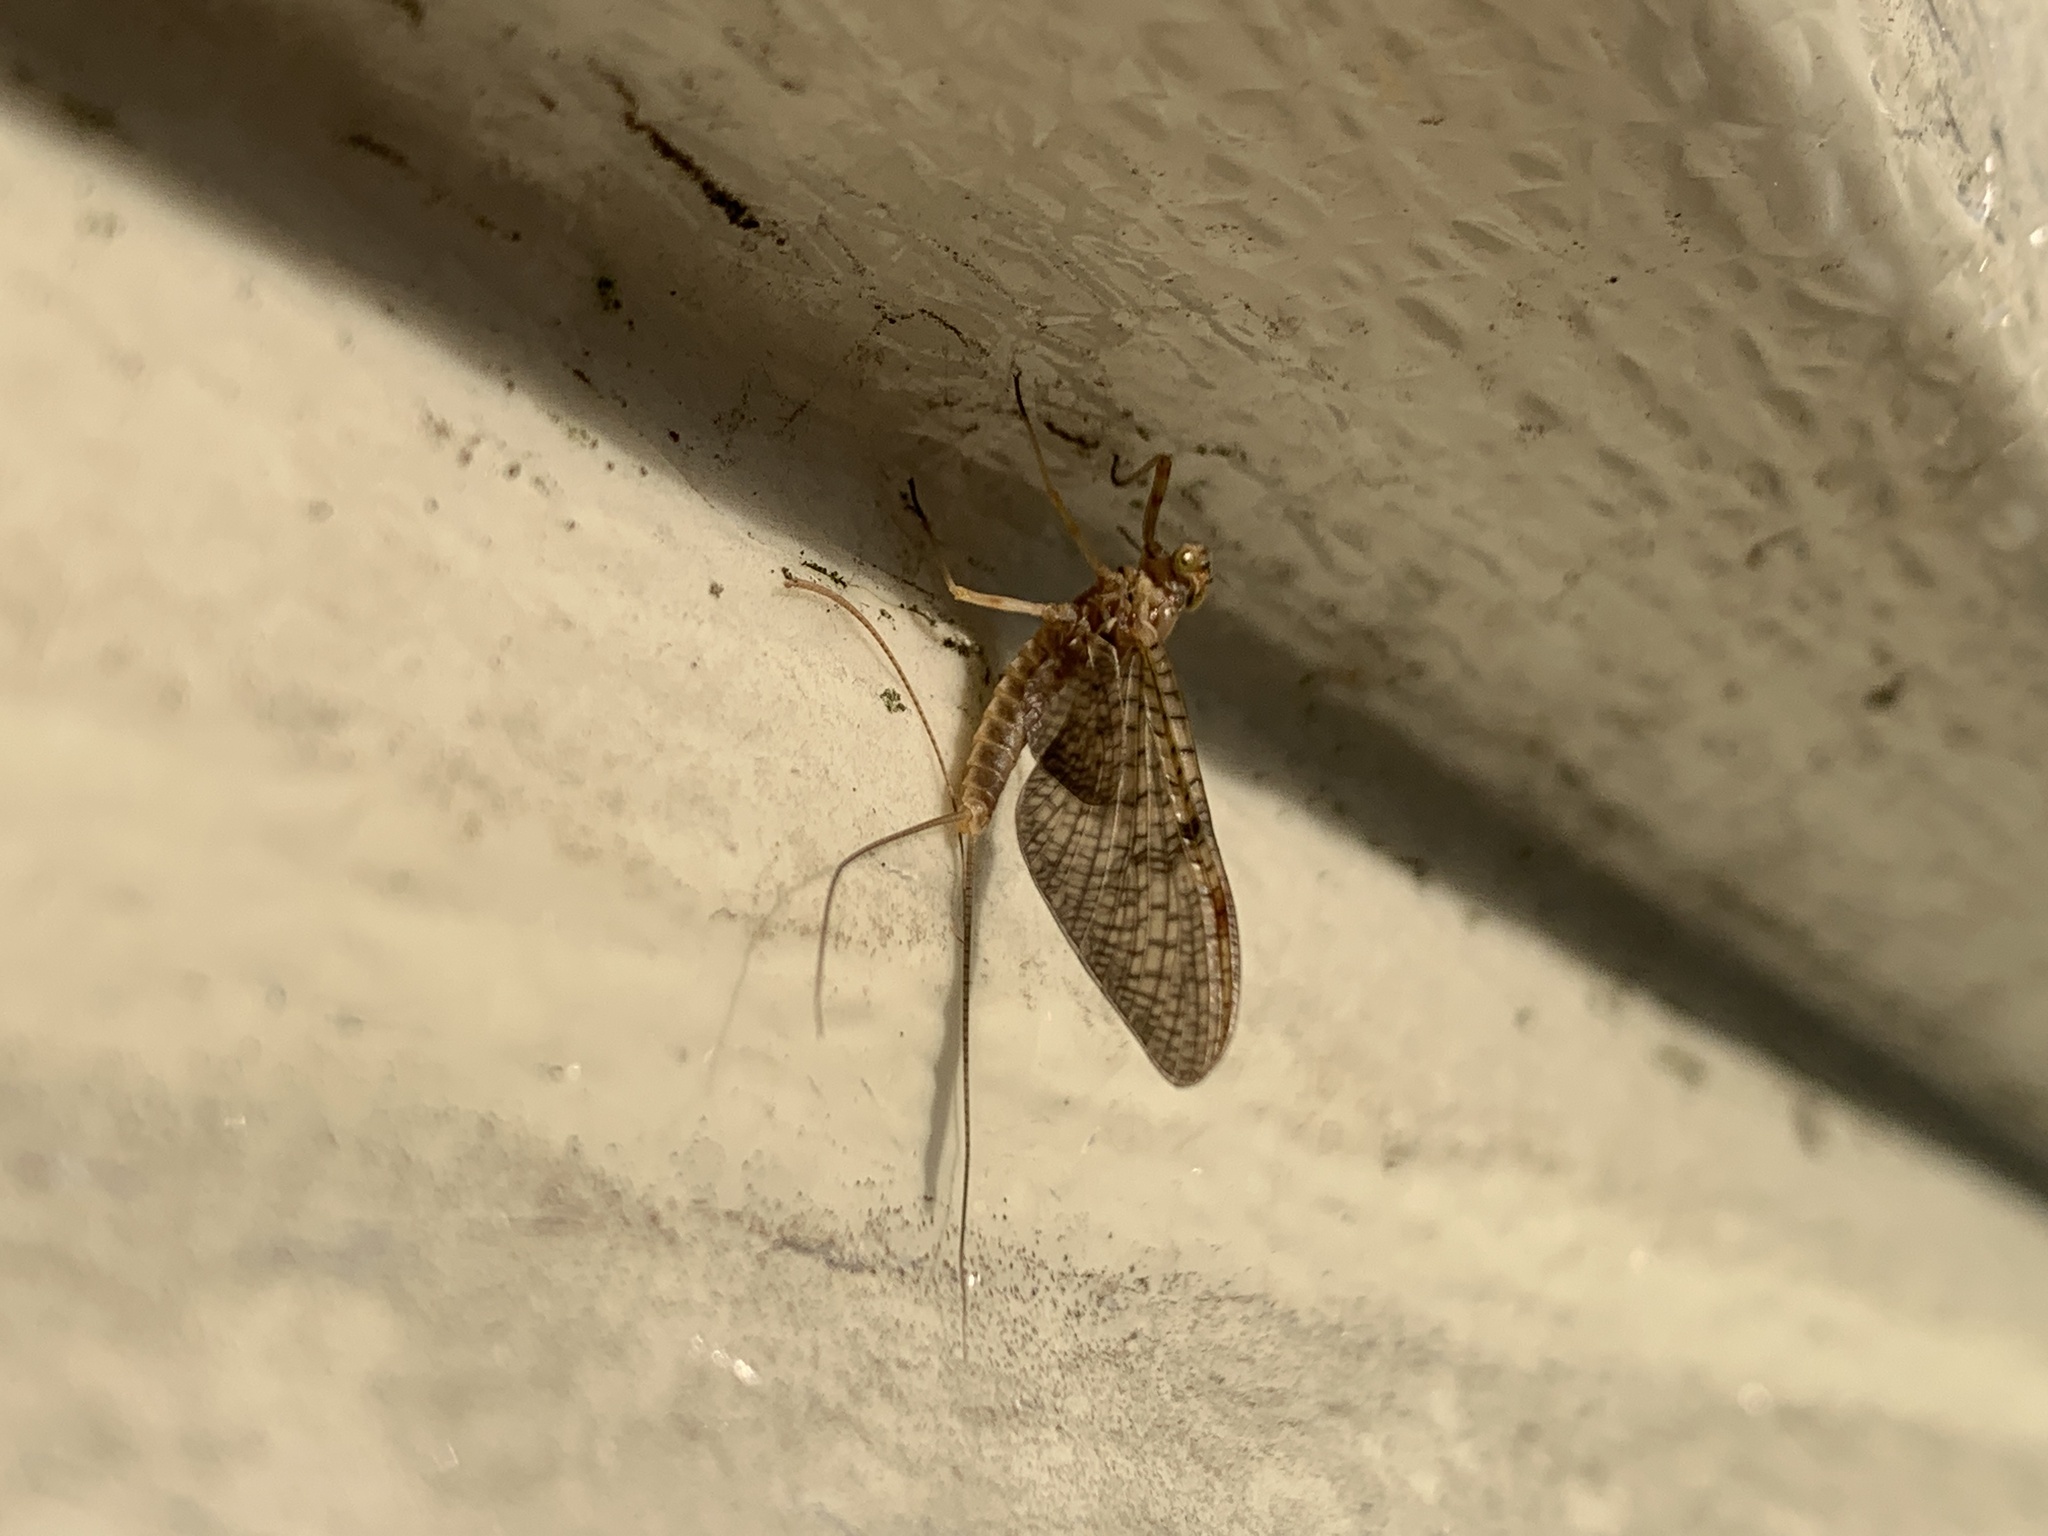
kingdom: Animalia
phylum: Arthropoda
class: Insecta
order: Ephemeroptera
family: Heptageniidae
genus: Stenonema
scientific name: Stenonema femoratum
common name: Dark cahill
